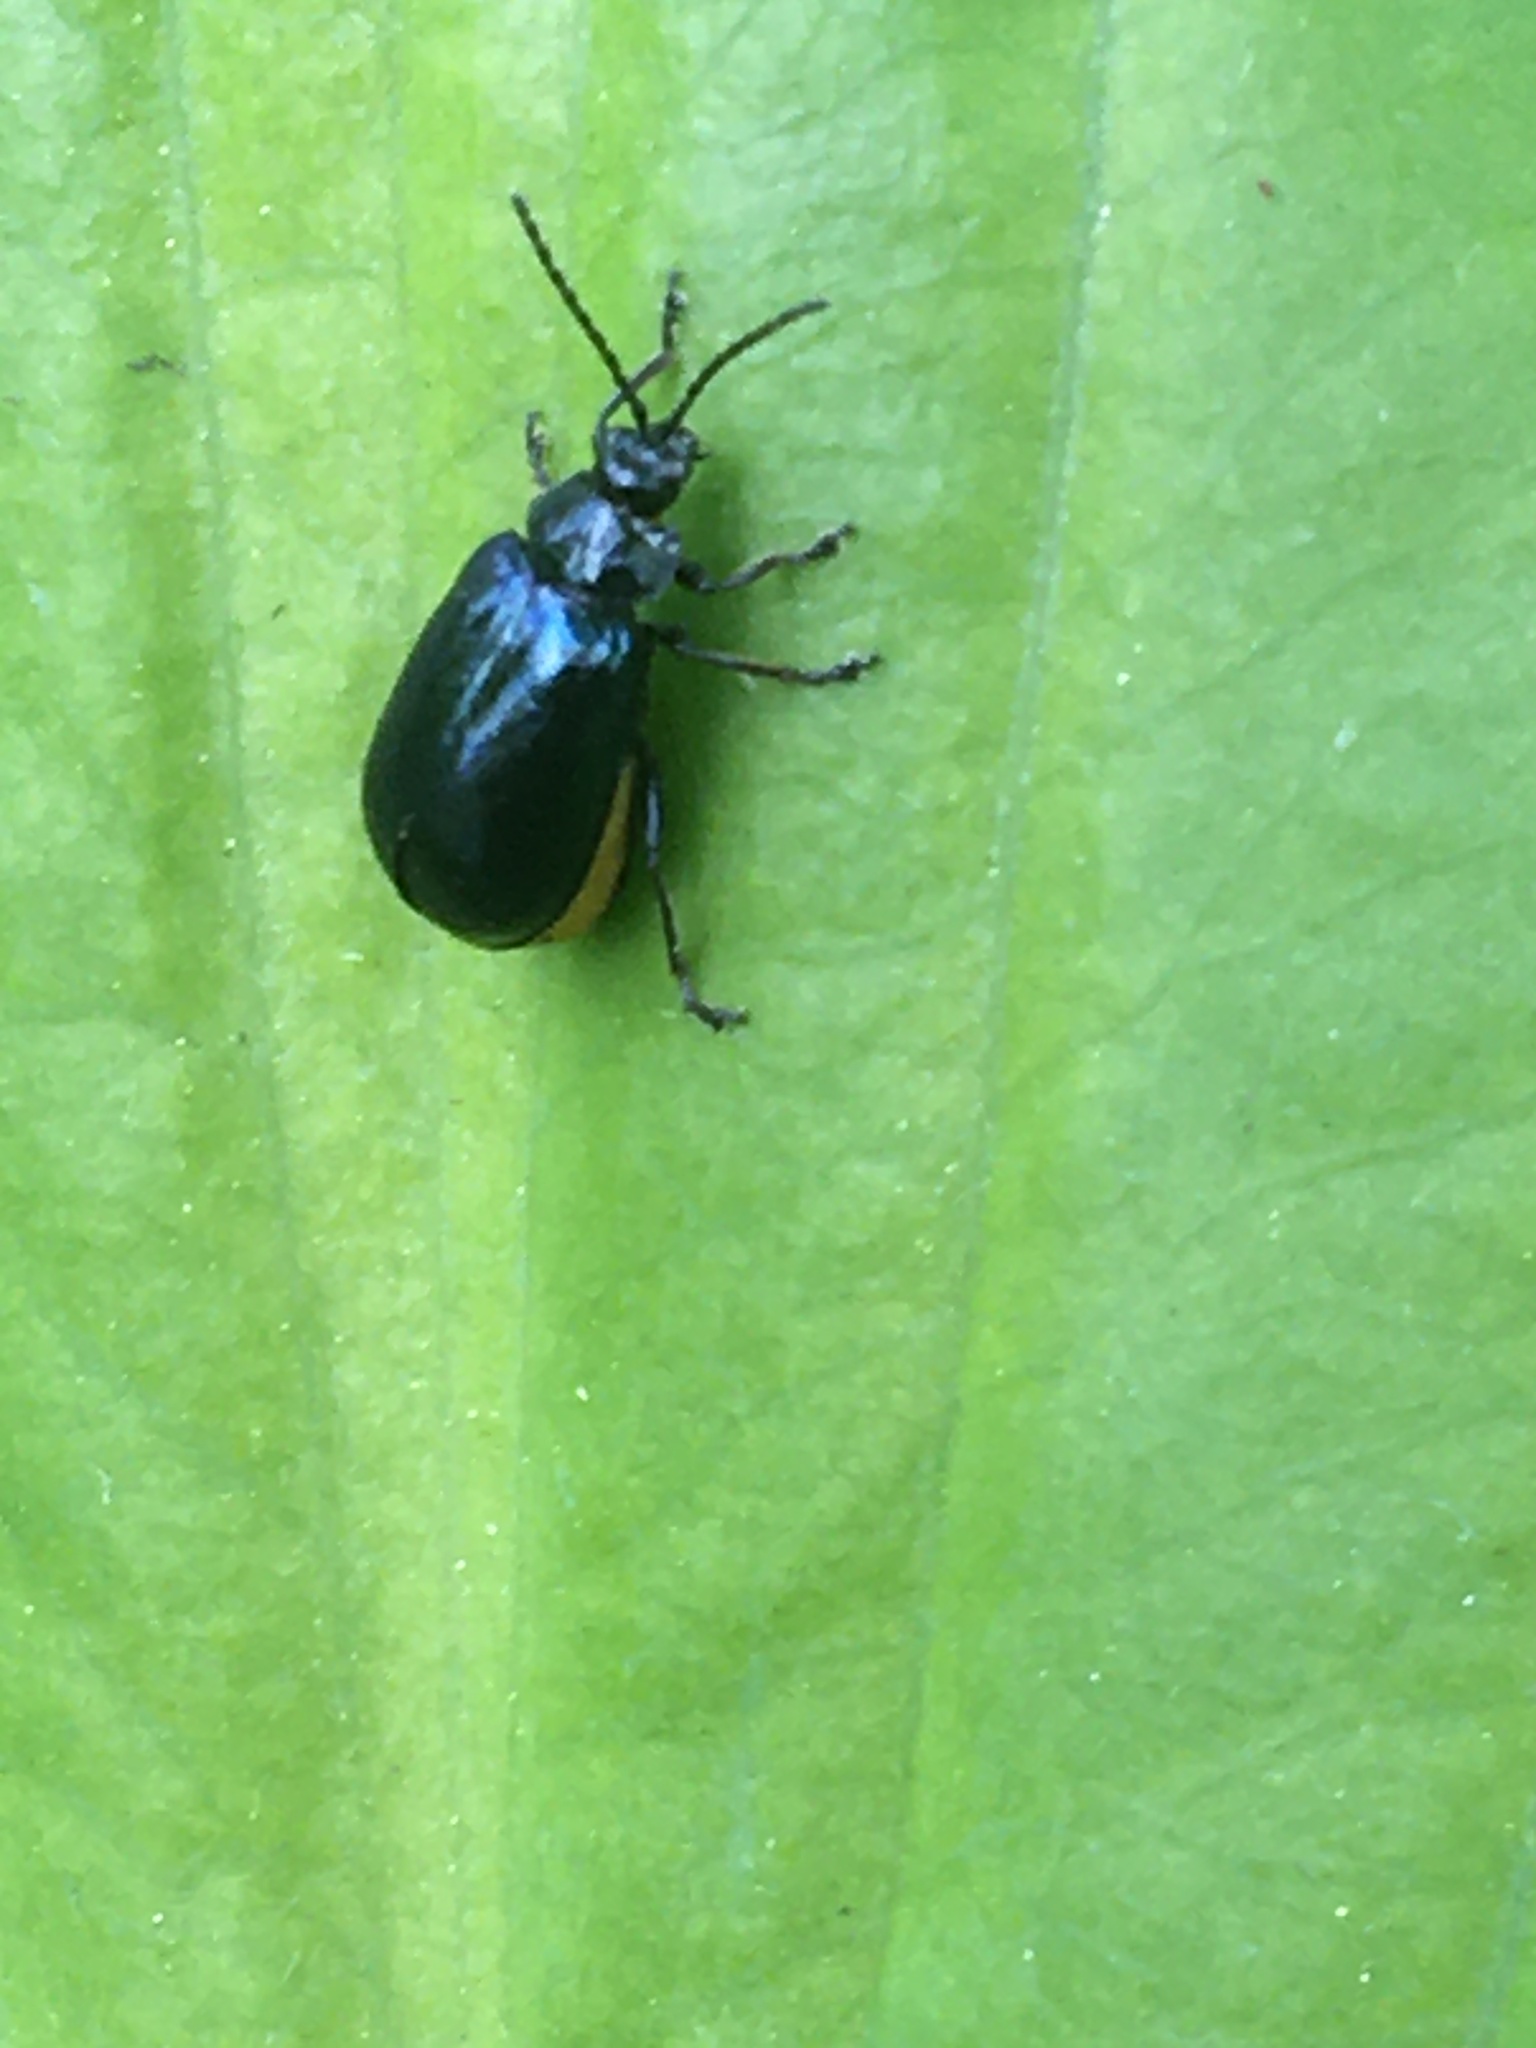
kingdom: Animalia
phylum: Arthropoda
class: Insecta
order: Coleoptera
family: Chrysomelidae
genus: Agelastica
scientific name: Agelastica alni
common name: Alder leaf beetle
